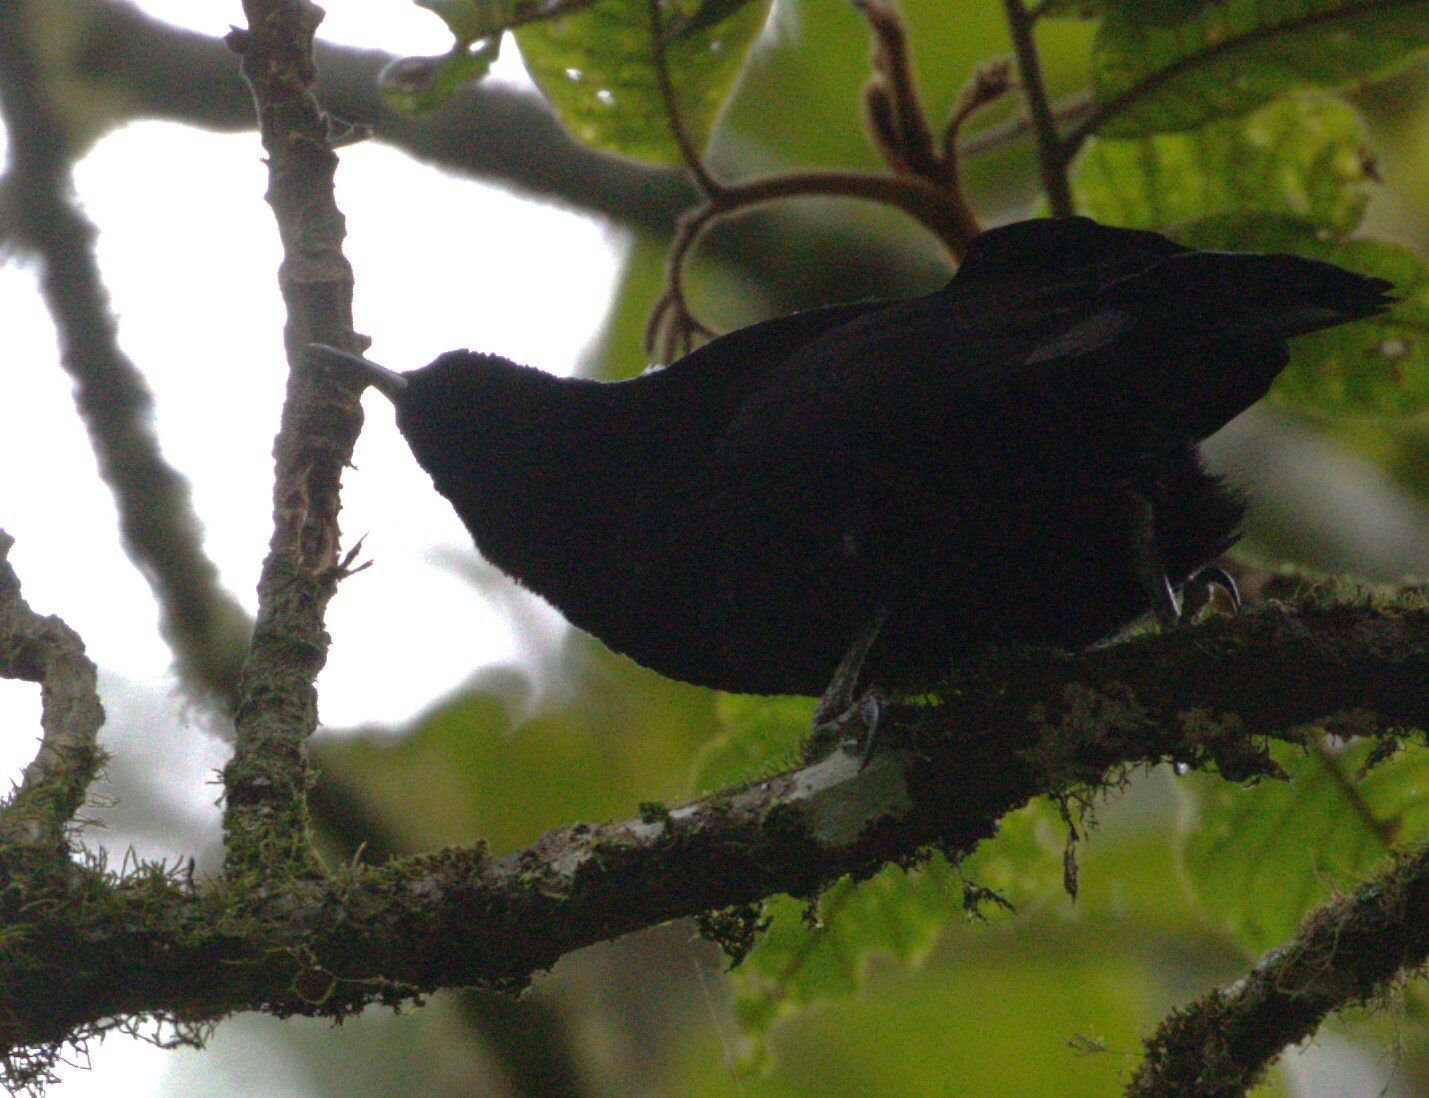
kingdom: Animalia
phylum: Chordata
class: Aves
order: Passeriformes
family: Paradisaeidae
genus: Ptiloris
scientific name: Ptiloris paradiseus
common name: Paradise riflebird
